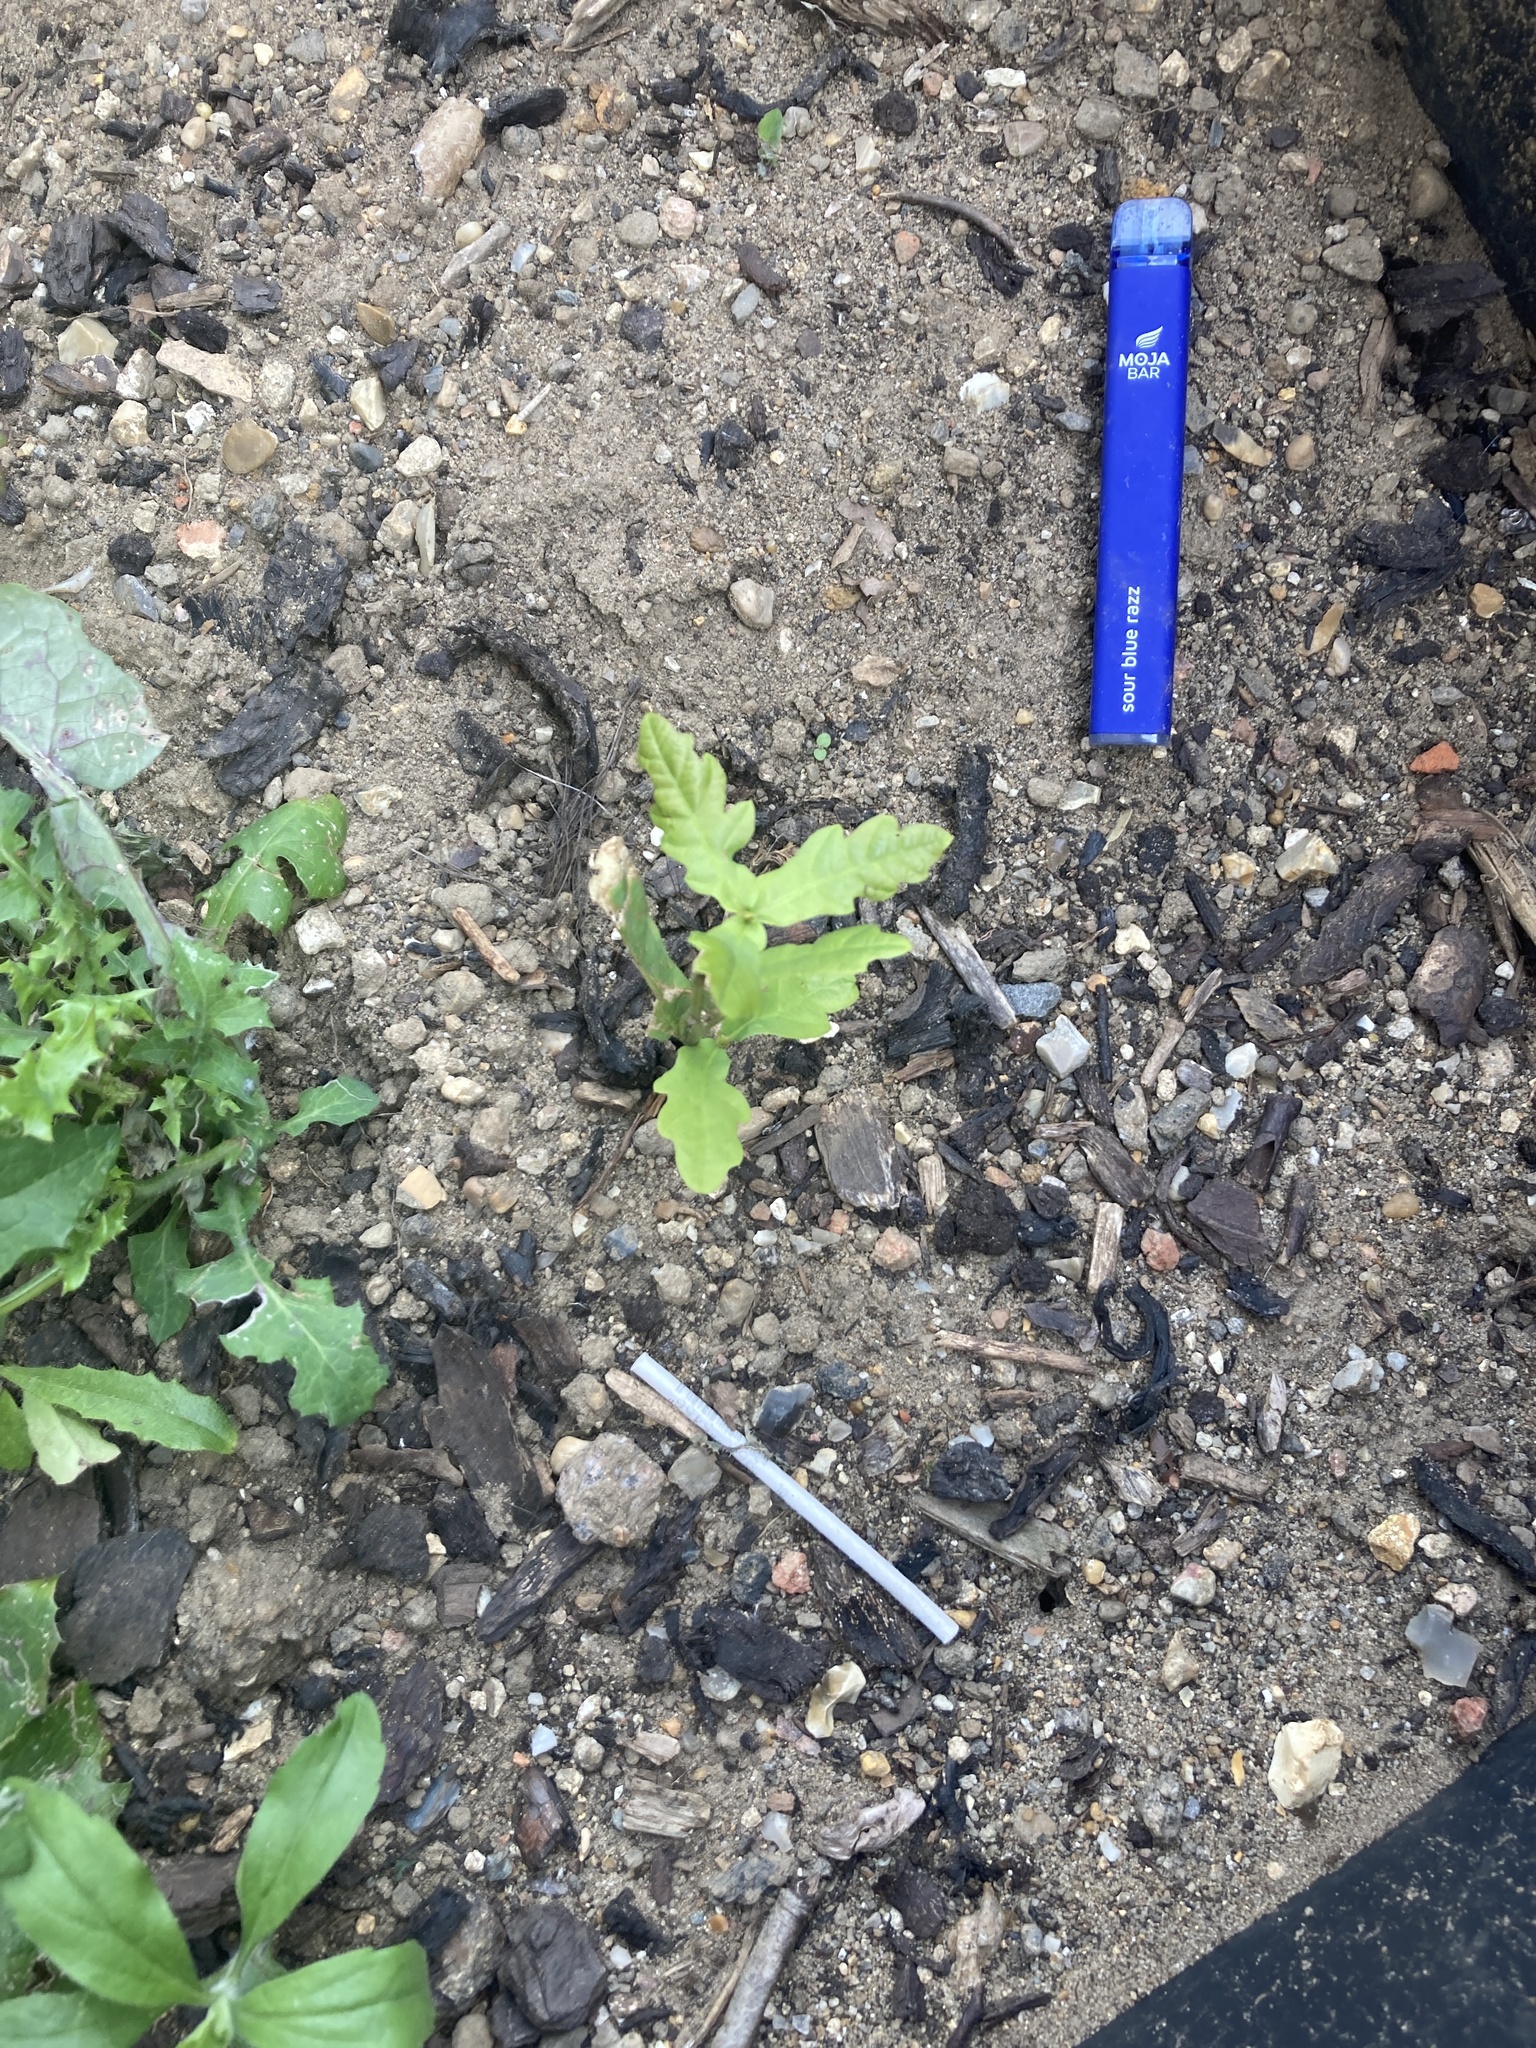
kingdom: Plantae
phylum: Tracheophyta
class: Magnoliopsida
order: Fagales
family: Fagaceae
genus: Quercus
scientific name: Quercus robur
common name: Pedunculate oak
